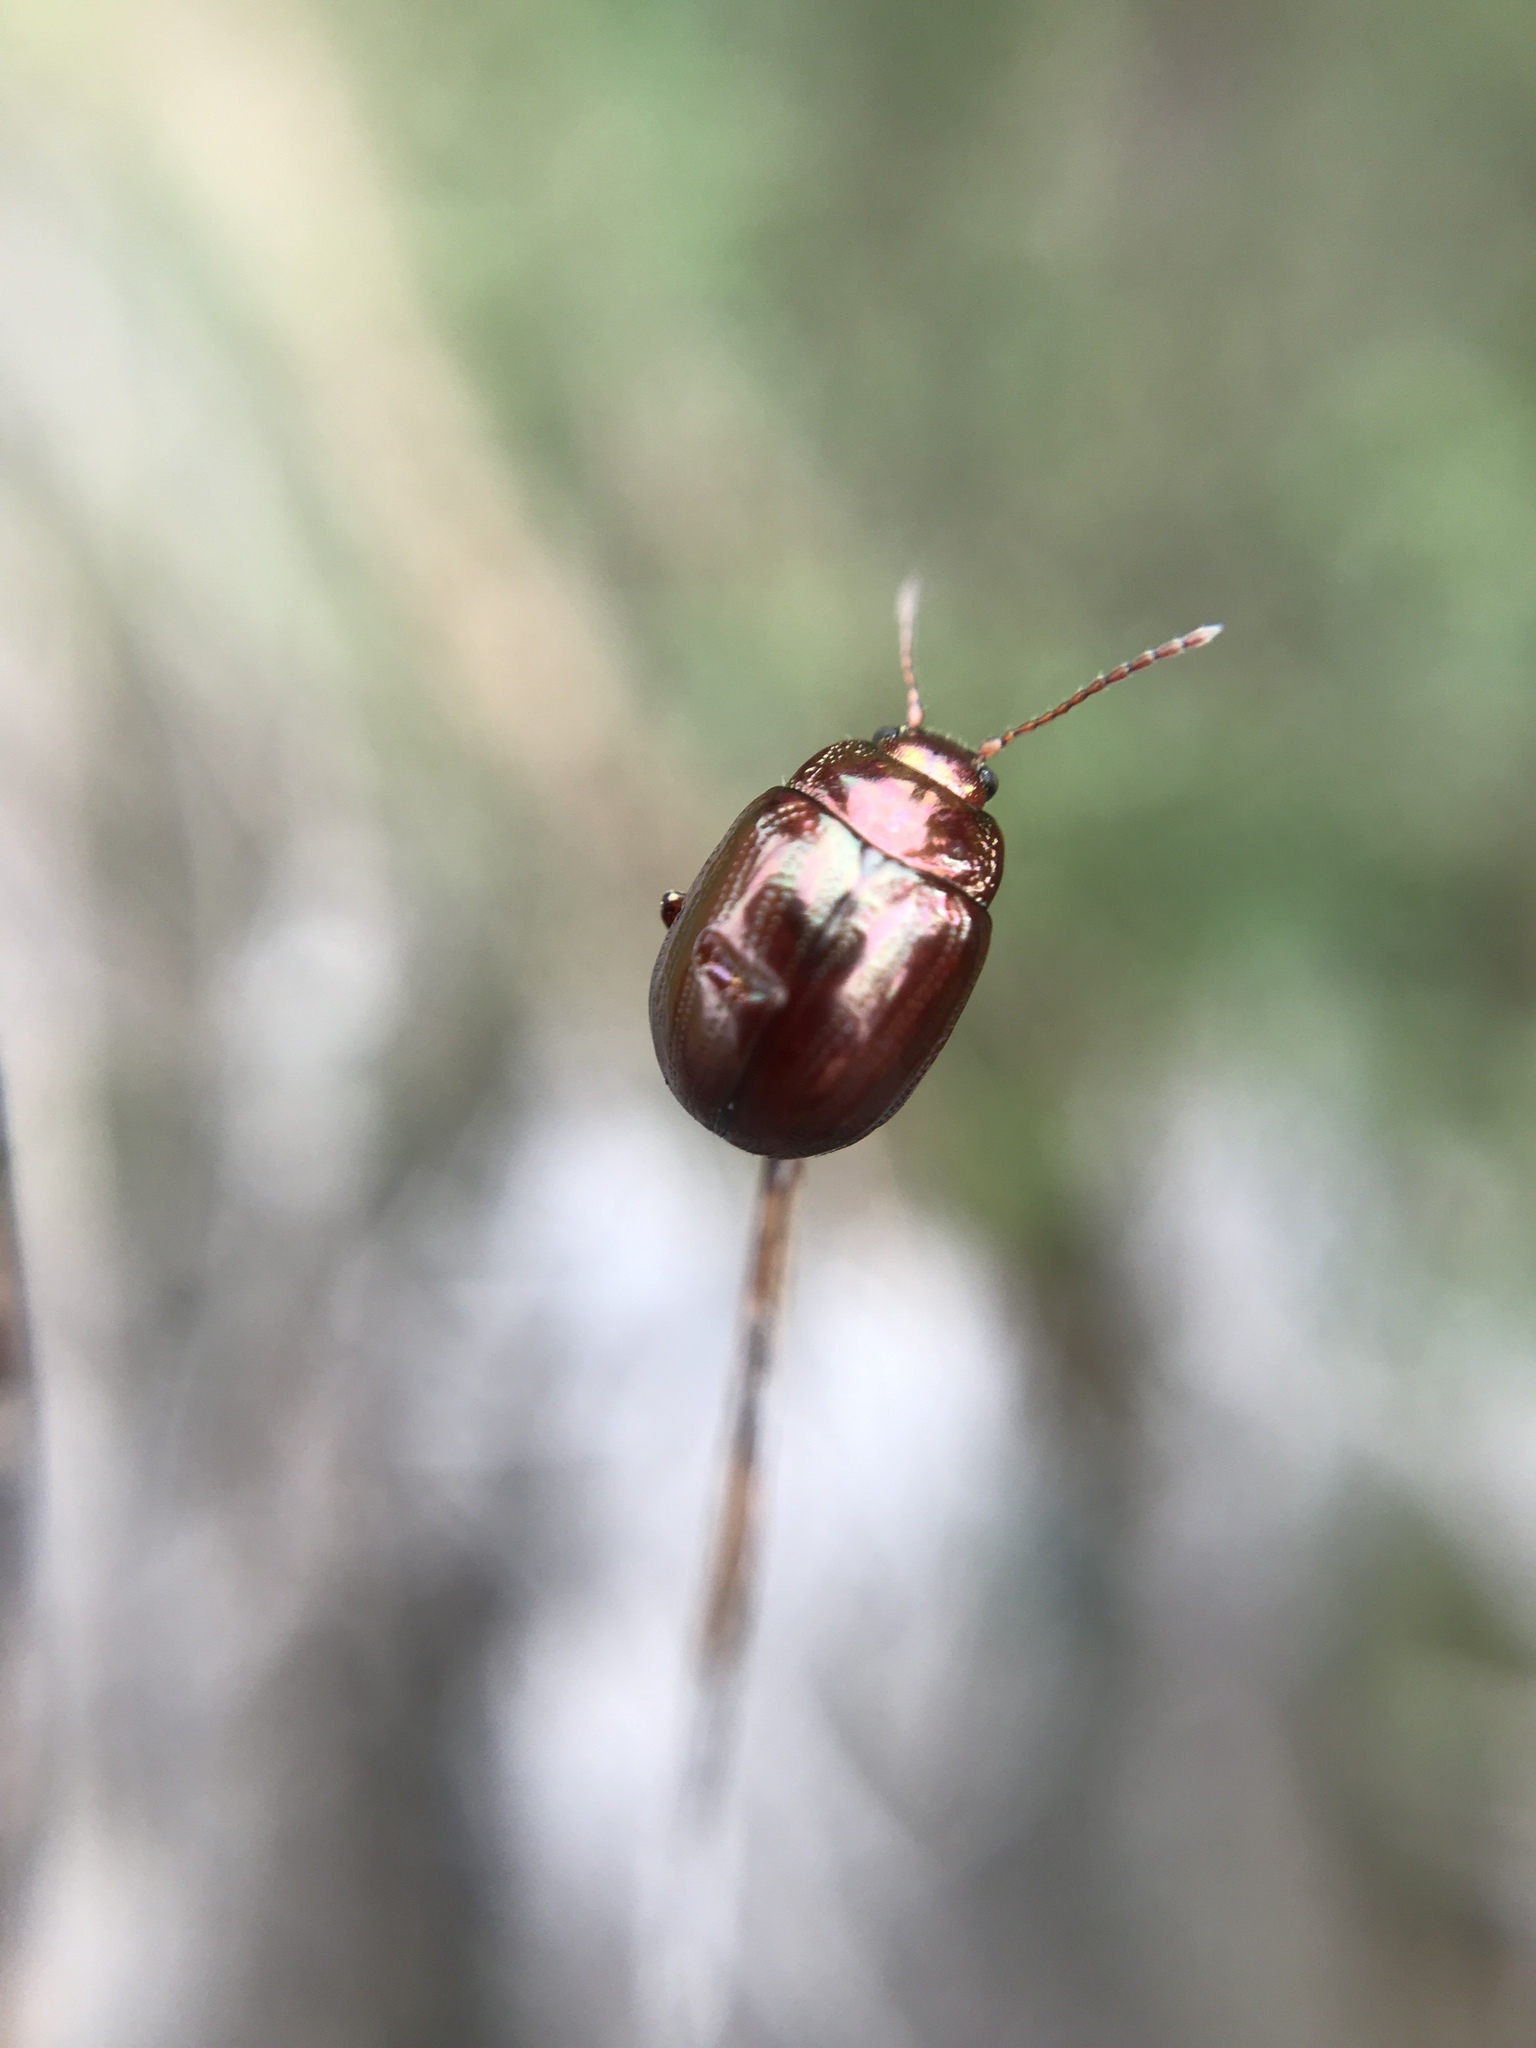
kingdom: Animalia
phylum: Arthropoda
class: Insecta
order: Coleoptera
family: Chrysomelidae
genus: Chrysolina
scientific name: Chrysolina americana
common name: Rosemary beetle
